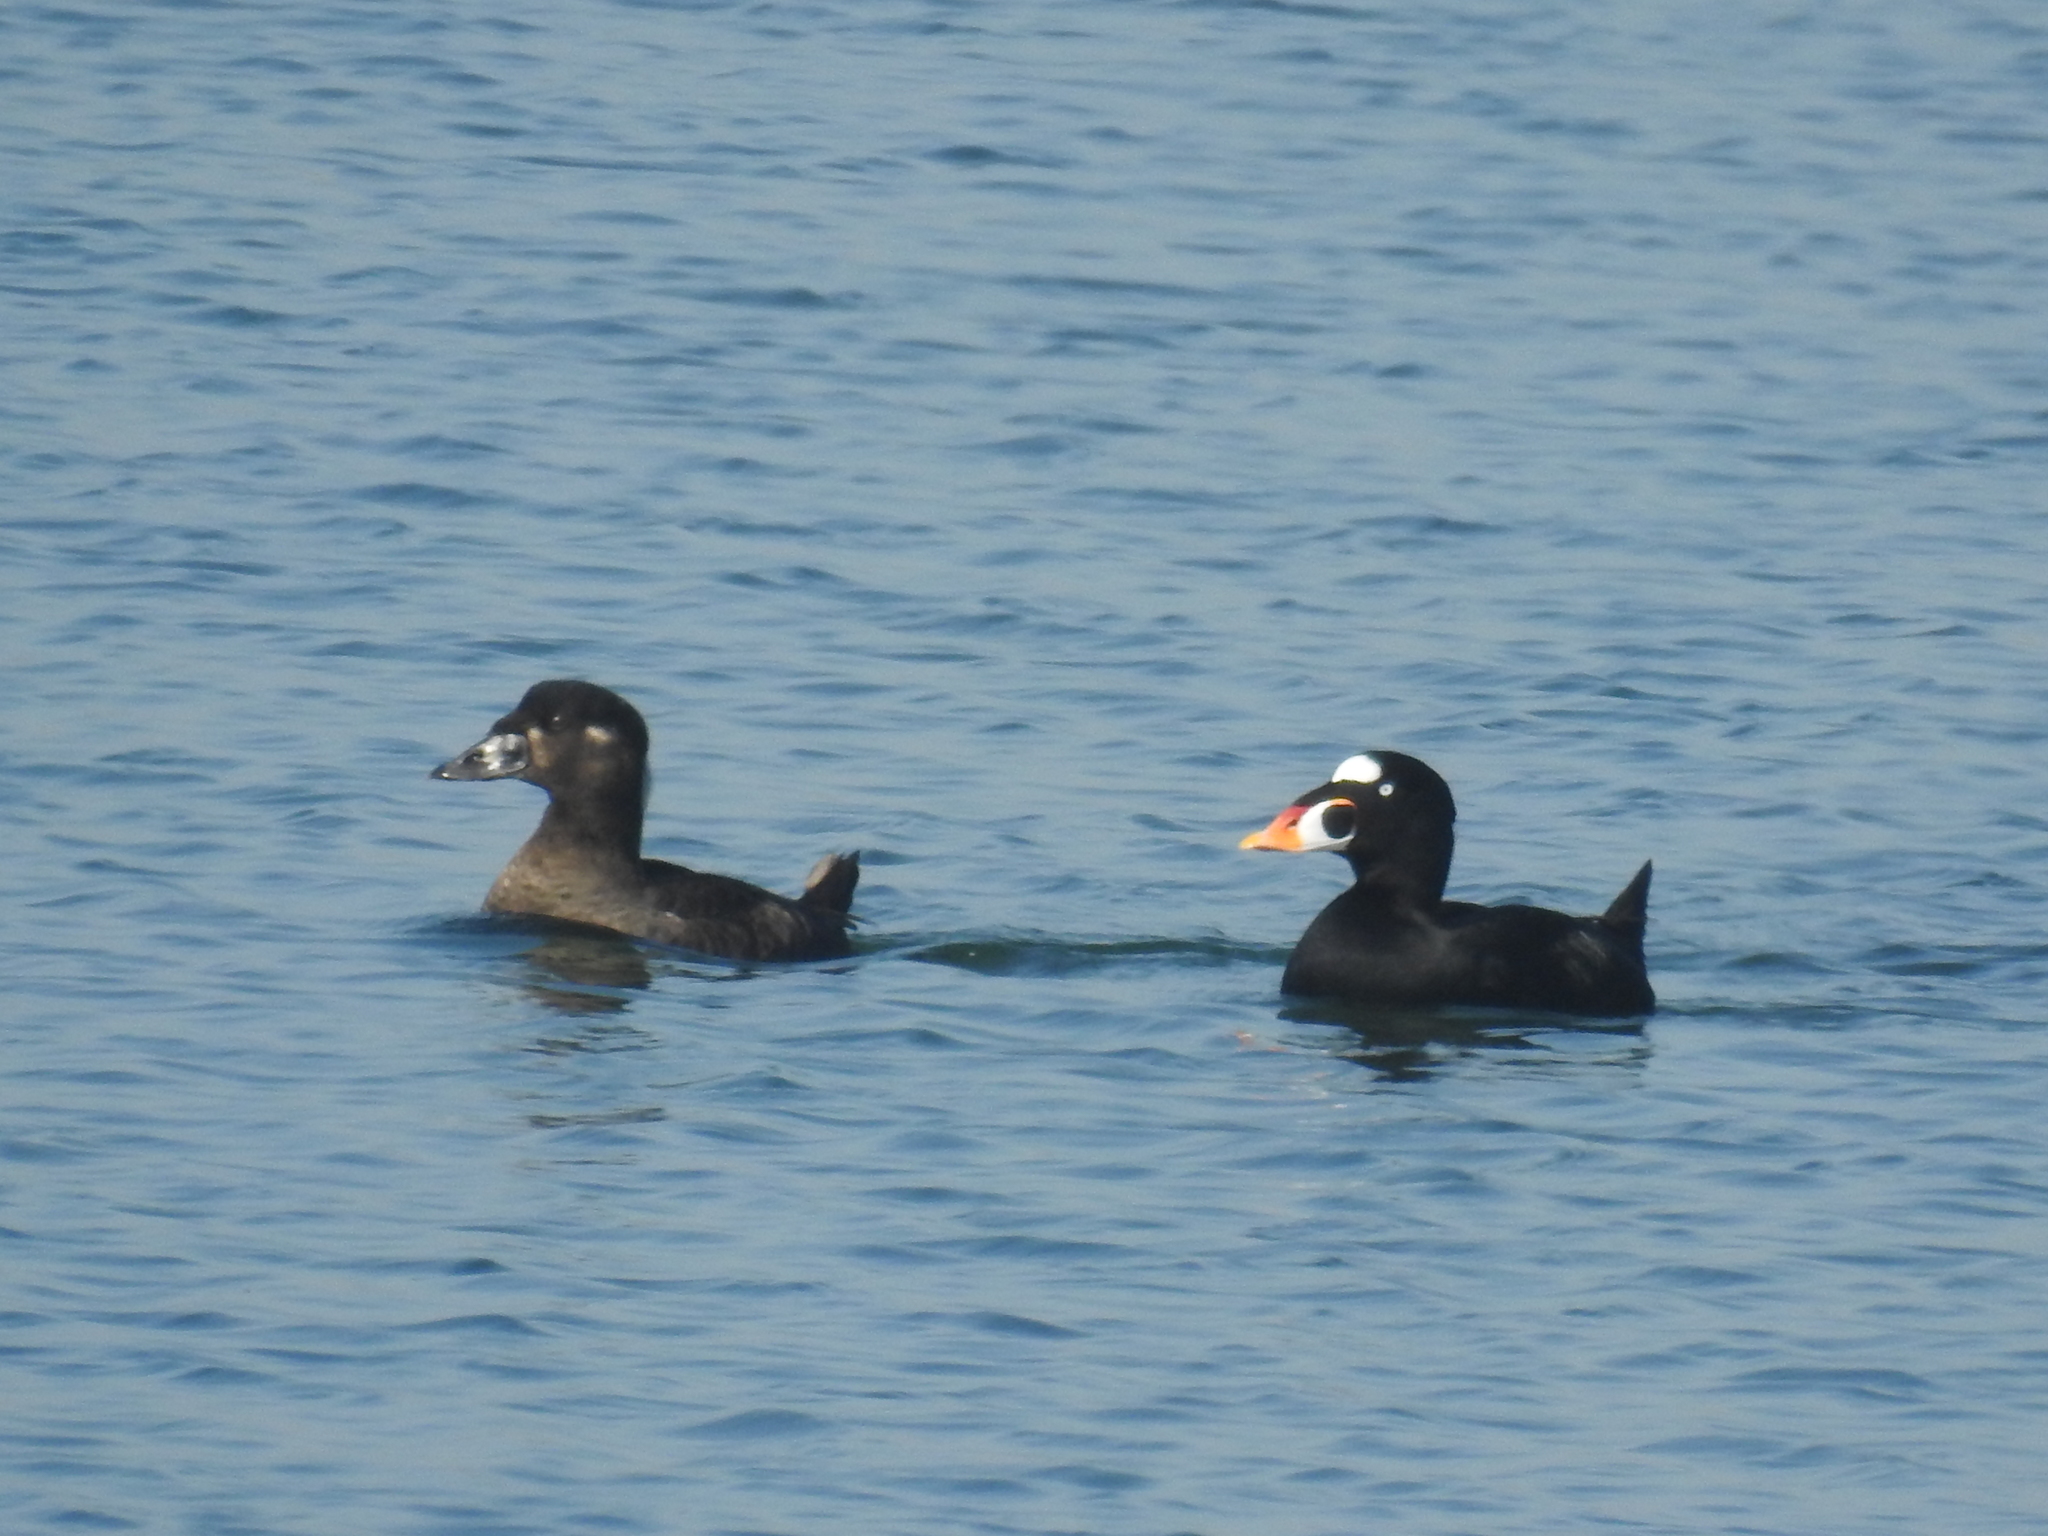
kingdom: Animalia
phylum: Chordata
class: Aves
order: Anseriformes
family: Anatidae
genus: Melanitta
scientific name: Melanitta perspicillata
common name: Surf scoter
